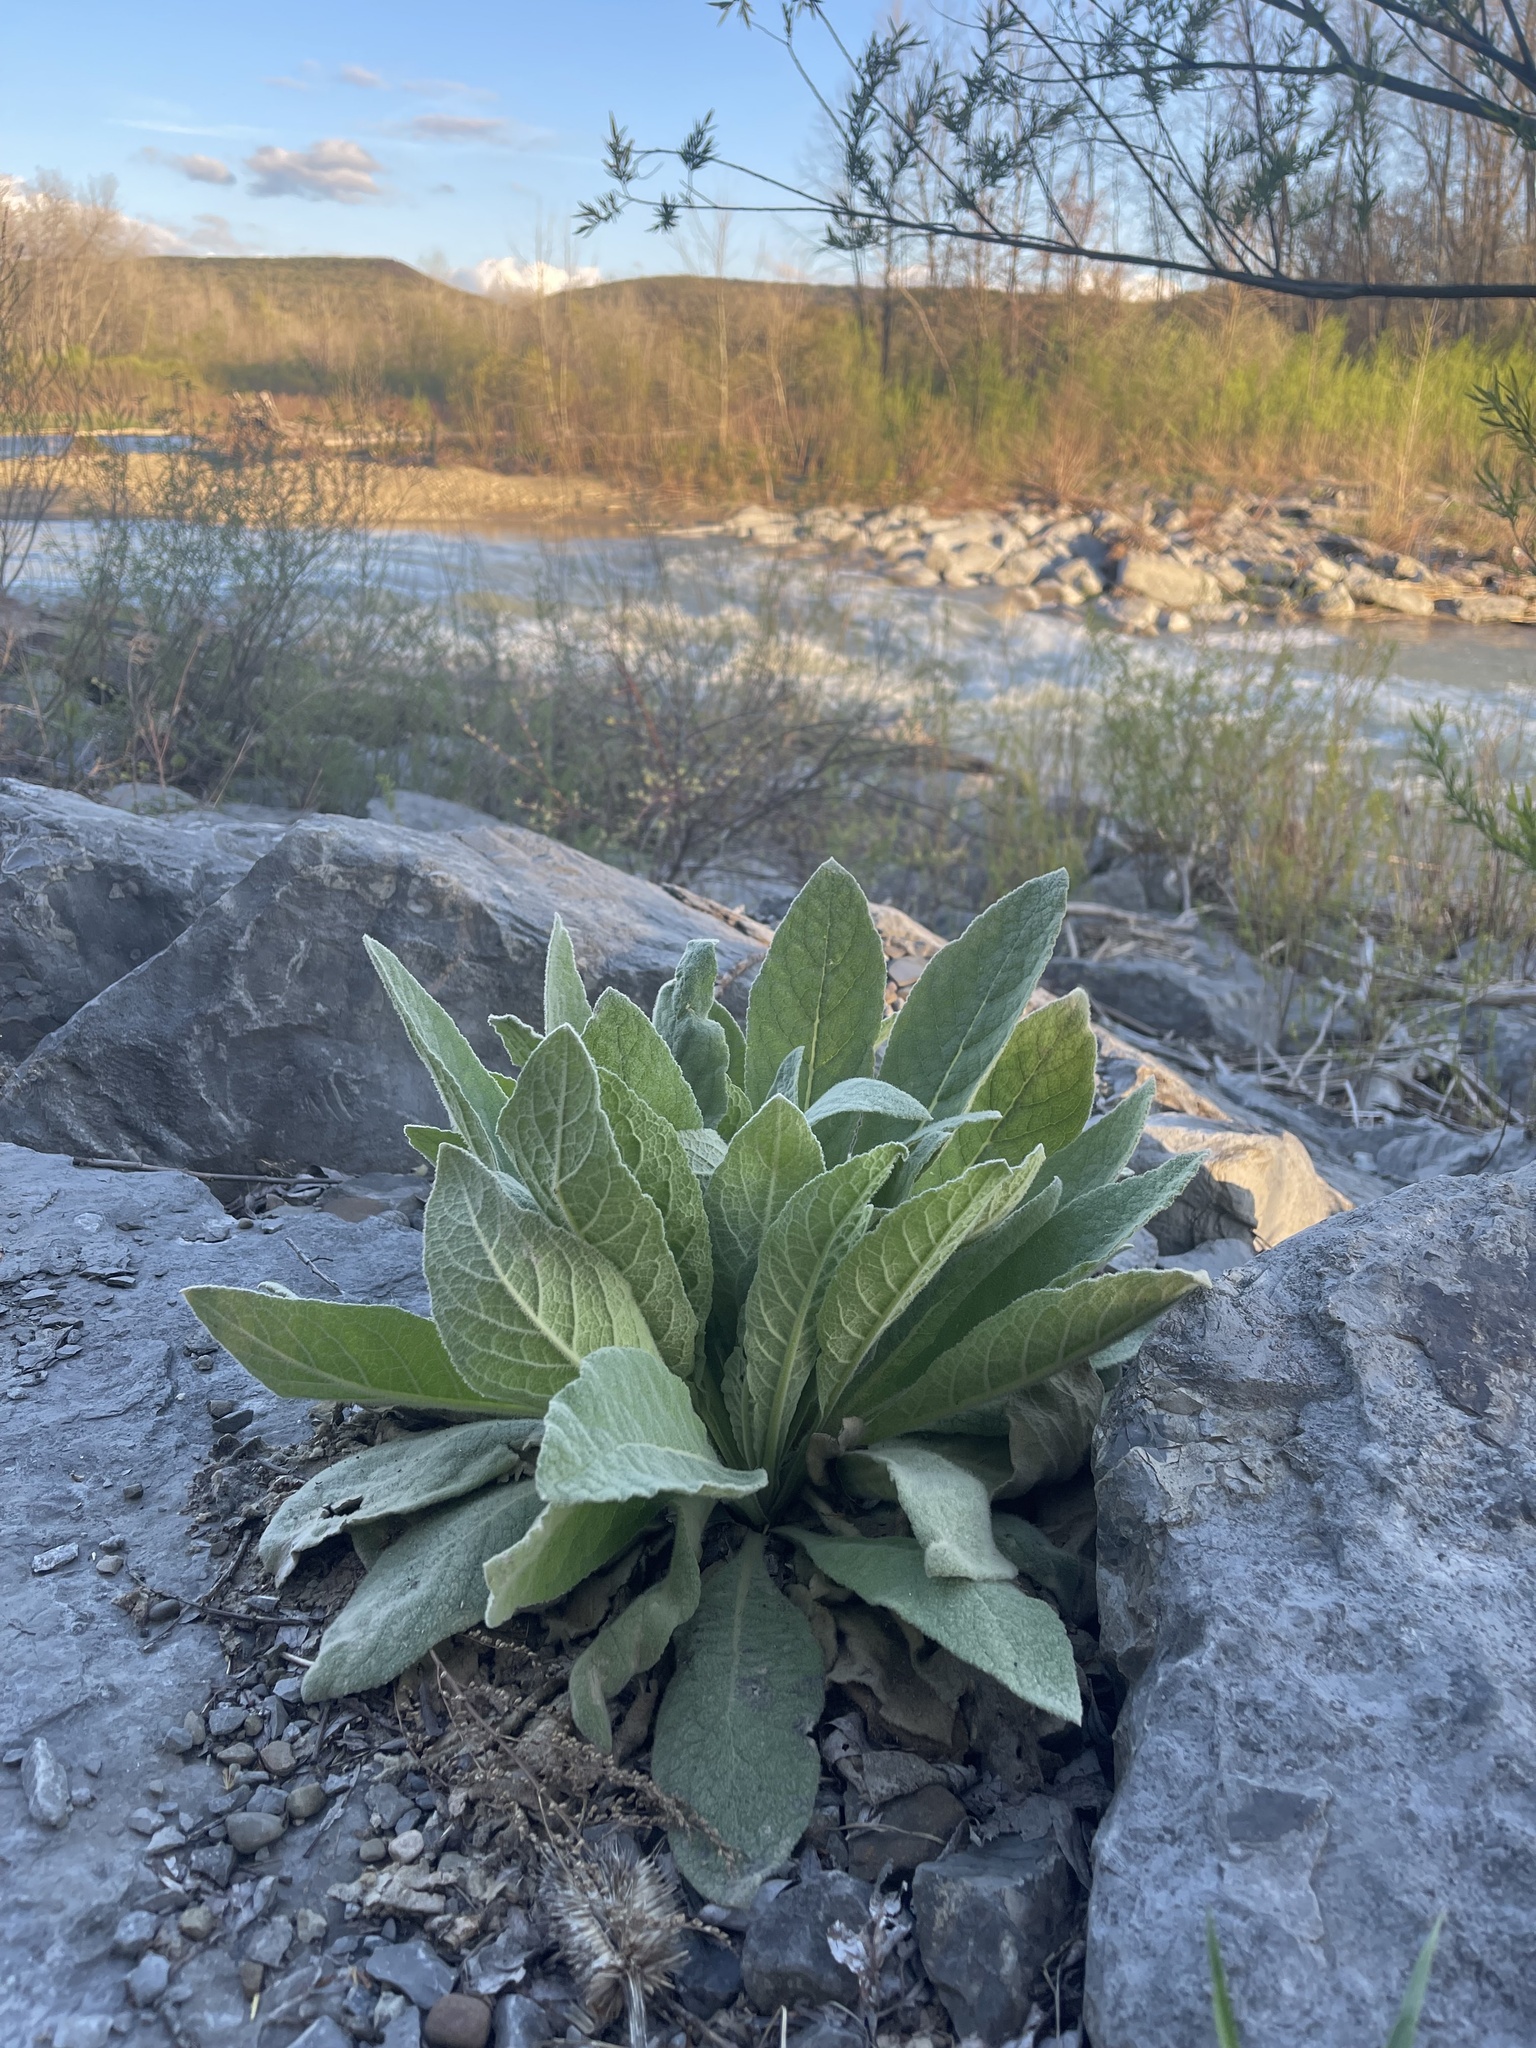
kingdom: Plantae
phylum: Tracheophyta
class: Magnoliopsida
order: Lamiales
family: Scrophulariaceae
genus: Verbascum
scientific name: Verbascum thapsus
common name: Common mullein
